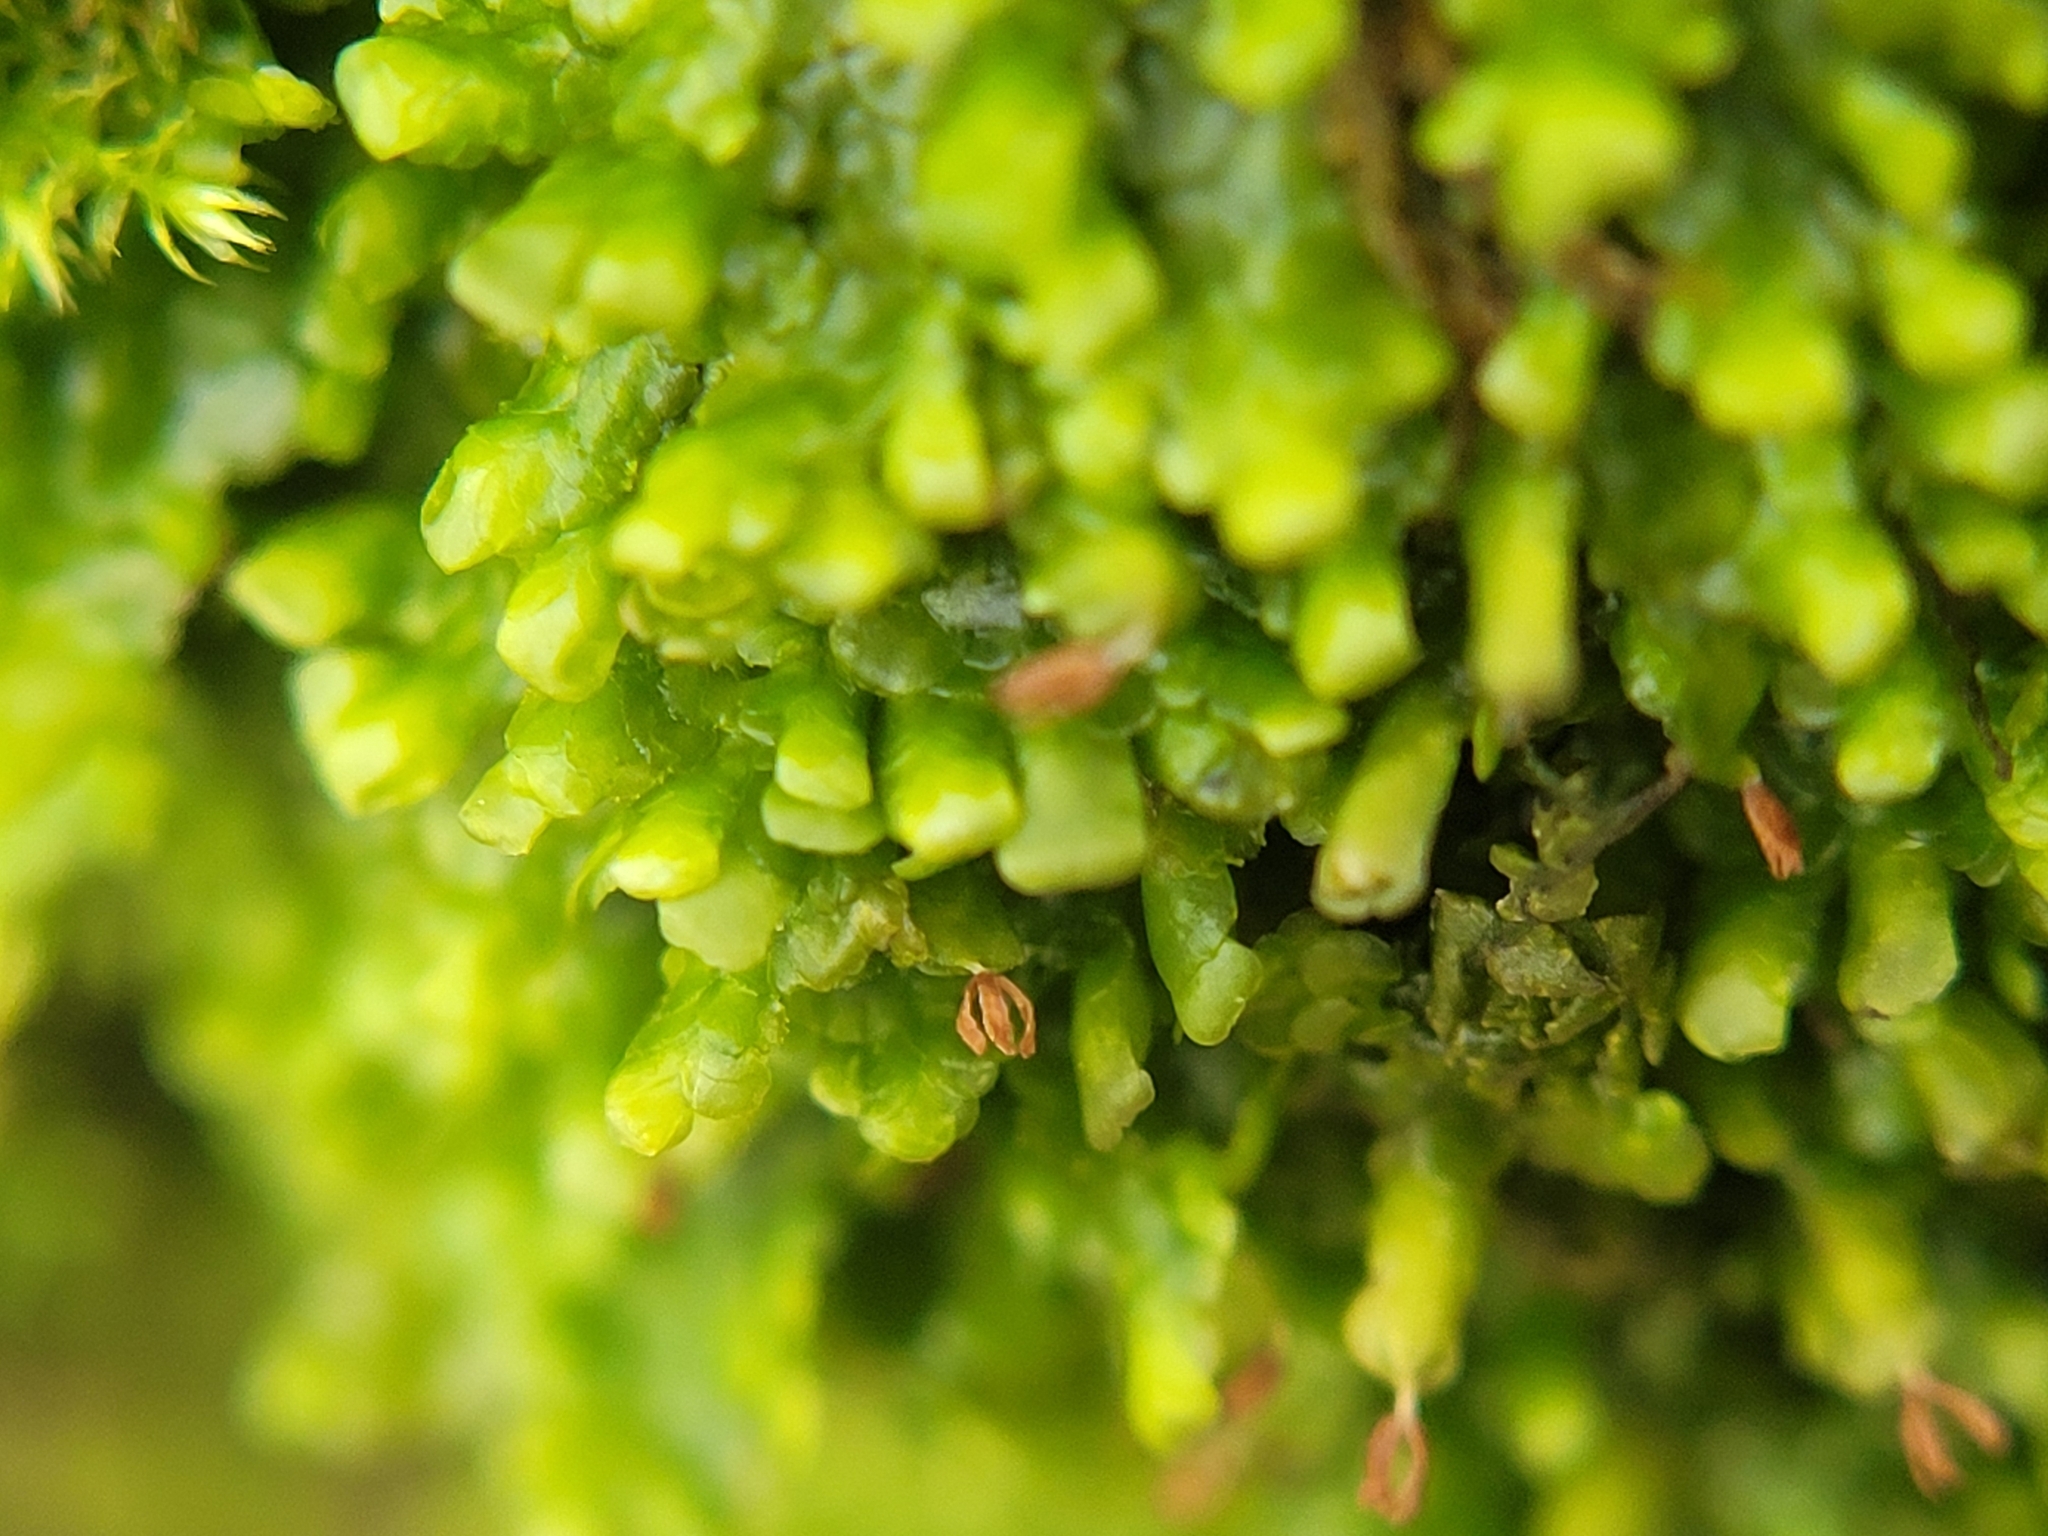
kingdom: Plantae
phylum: Marchantiophyta
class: Jungermanniopsida
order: Porellales
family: Radulaceae
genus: Radula
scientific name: Radula complanata
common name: Flat-leaved scalewort
